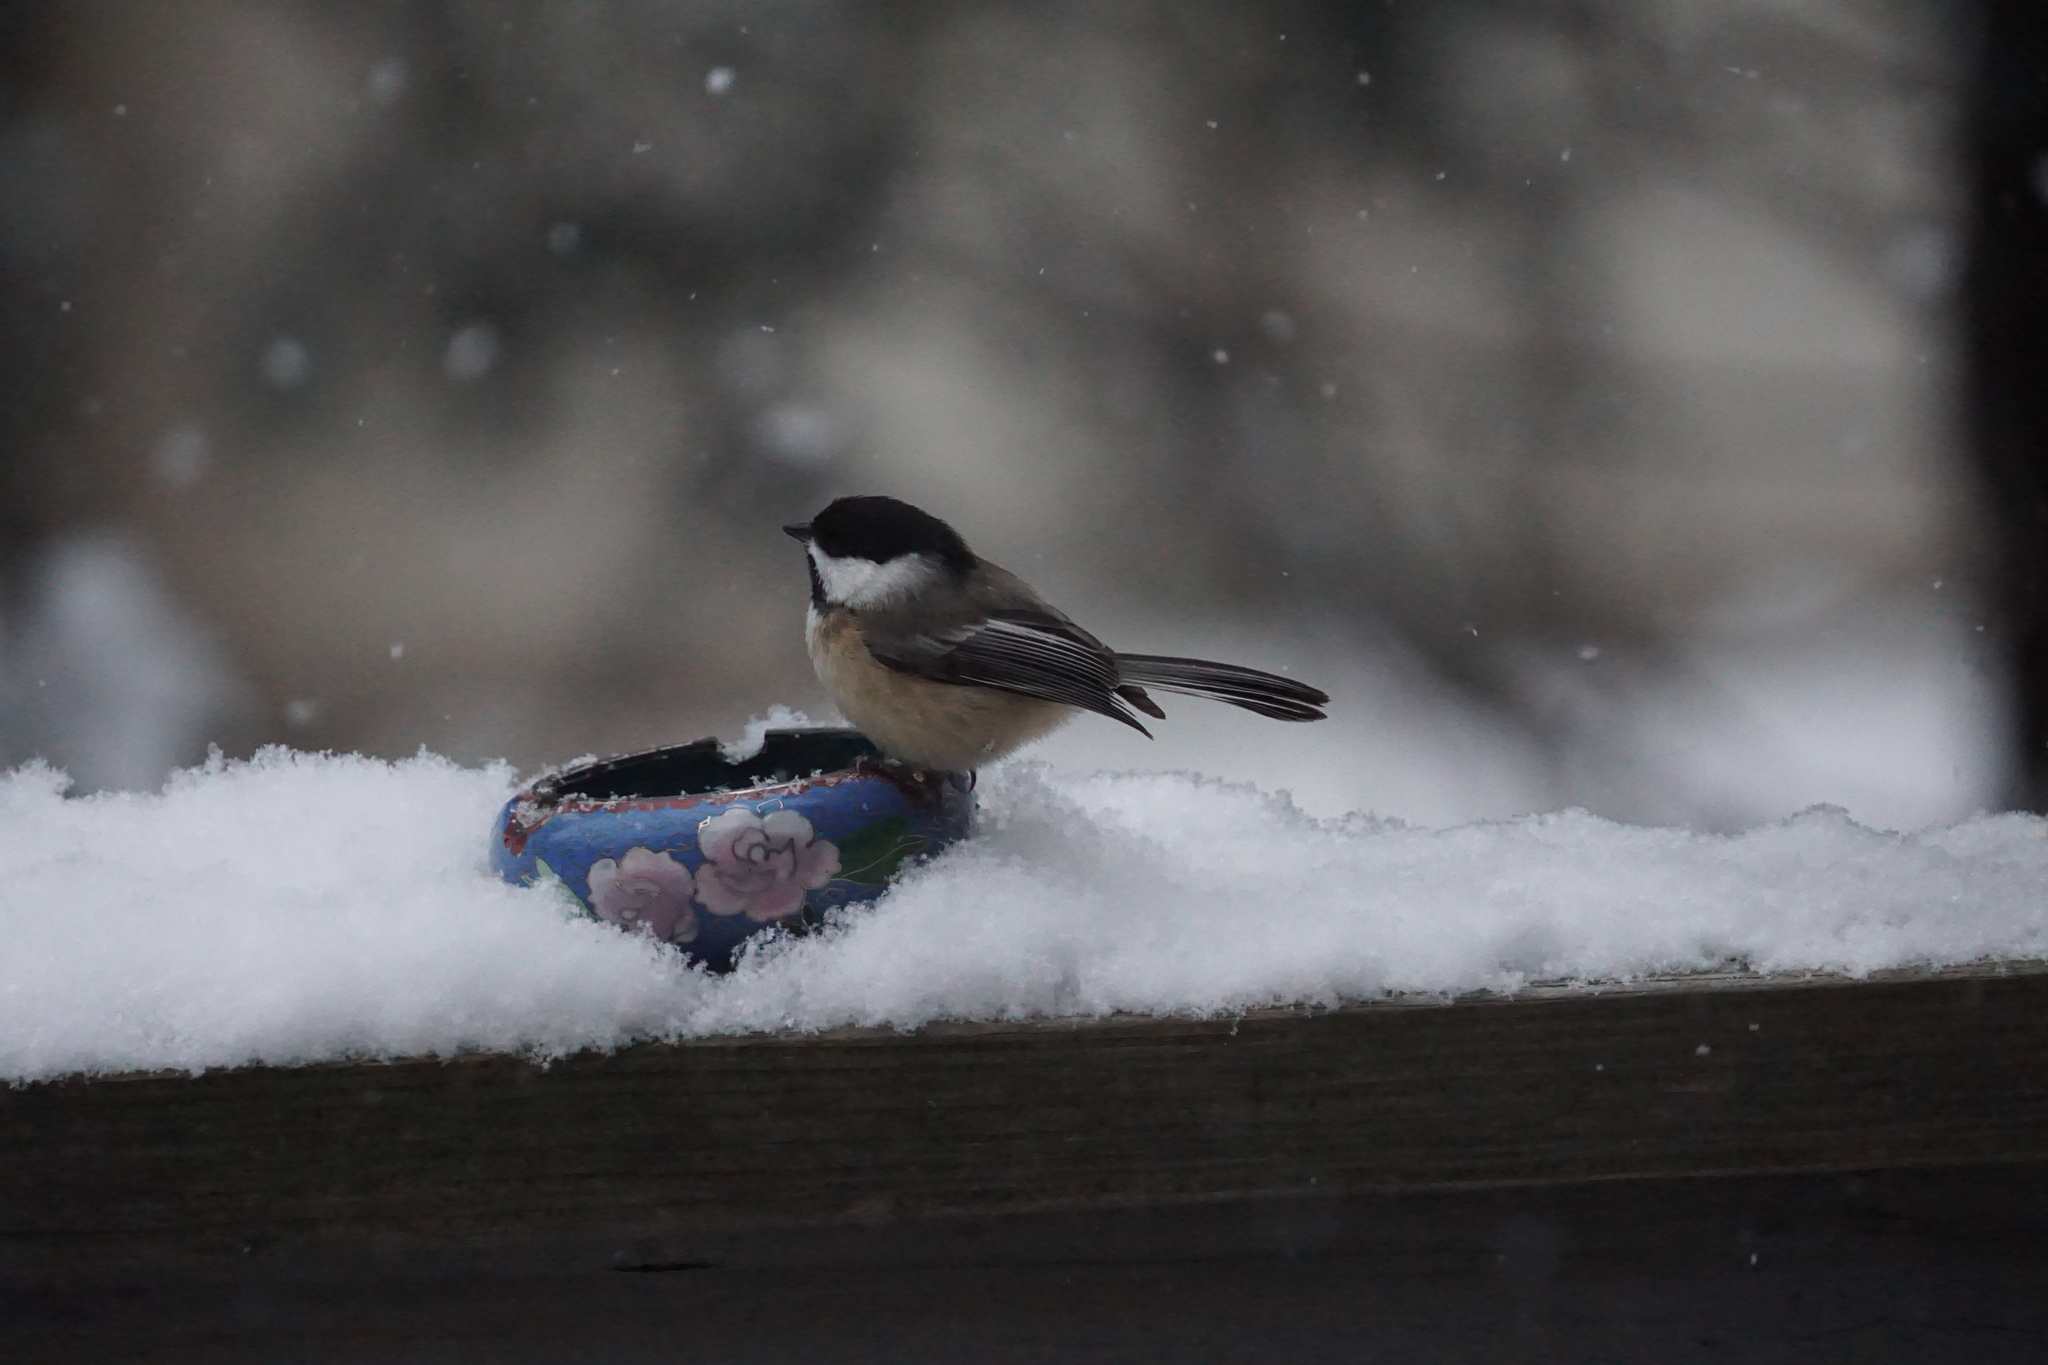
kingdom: Animalia
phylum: Chordata
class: Aves
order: Passeriformes
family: Paridae
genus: Poecile
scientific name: Poecile atricapillus
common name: Black-capped chickadee
